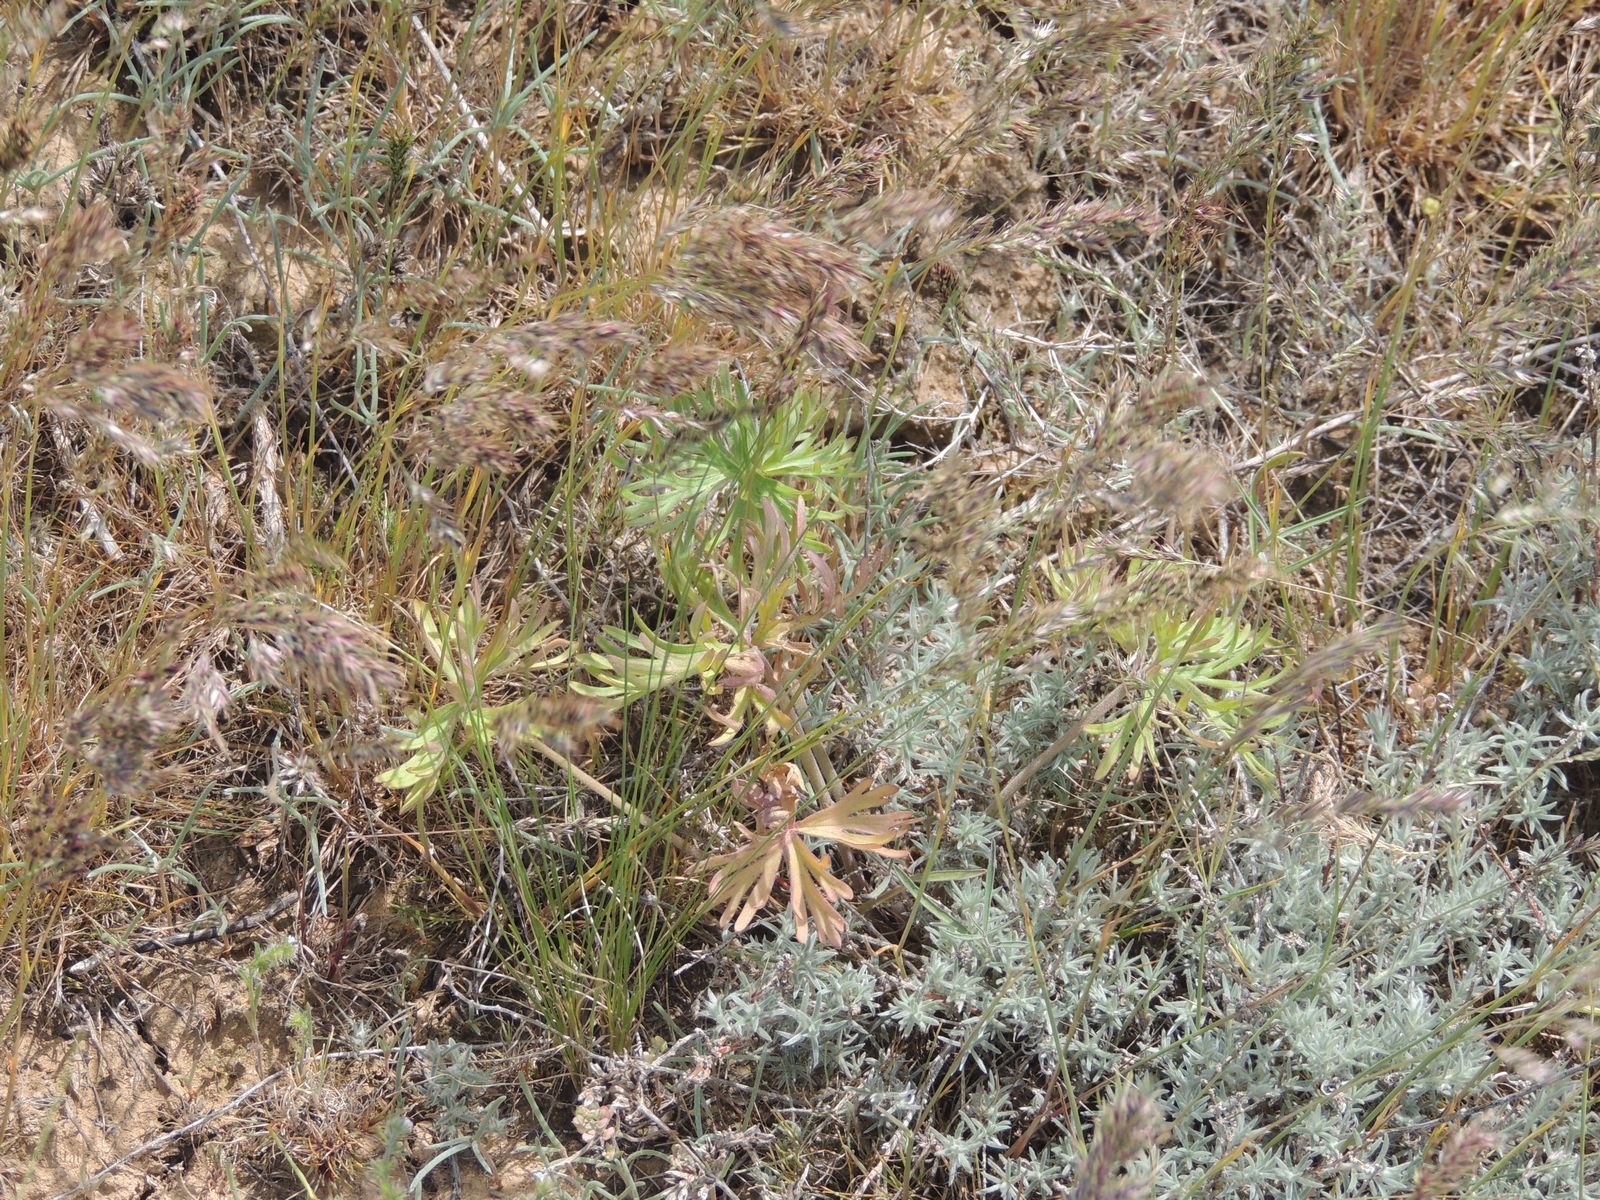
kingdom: Plantae
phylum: Tracheophyta
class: Magnoliopsida
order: Ranunculales
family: Ranunculaceae
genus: Delphinium
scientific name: Delphinium puniceum
